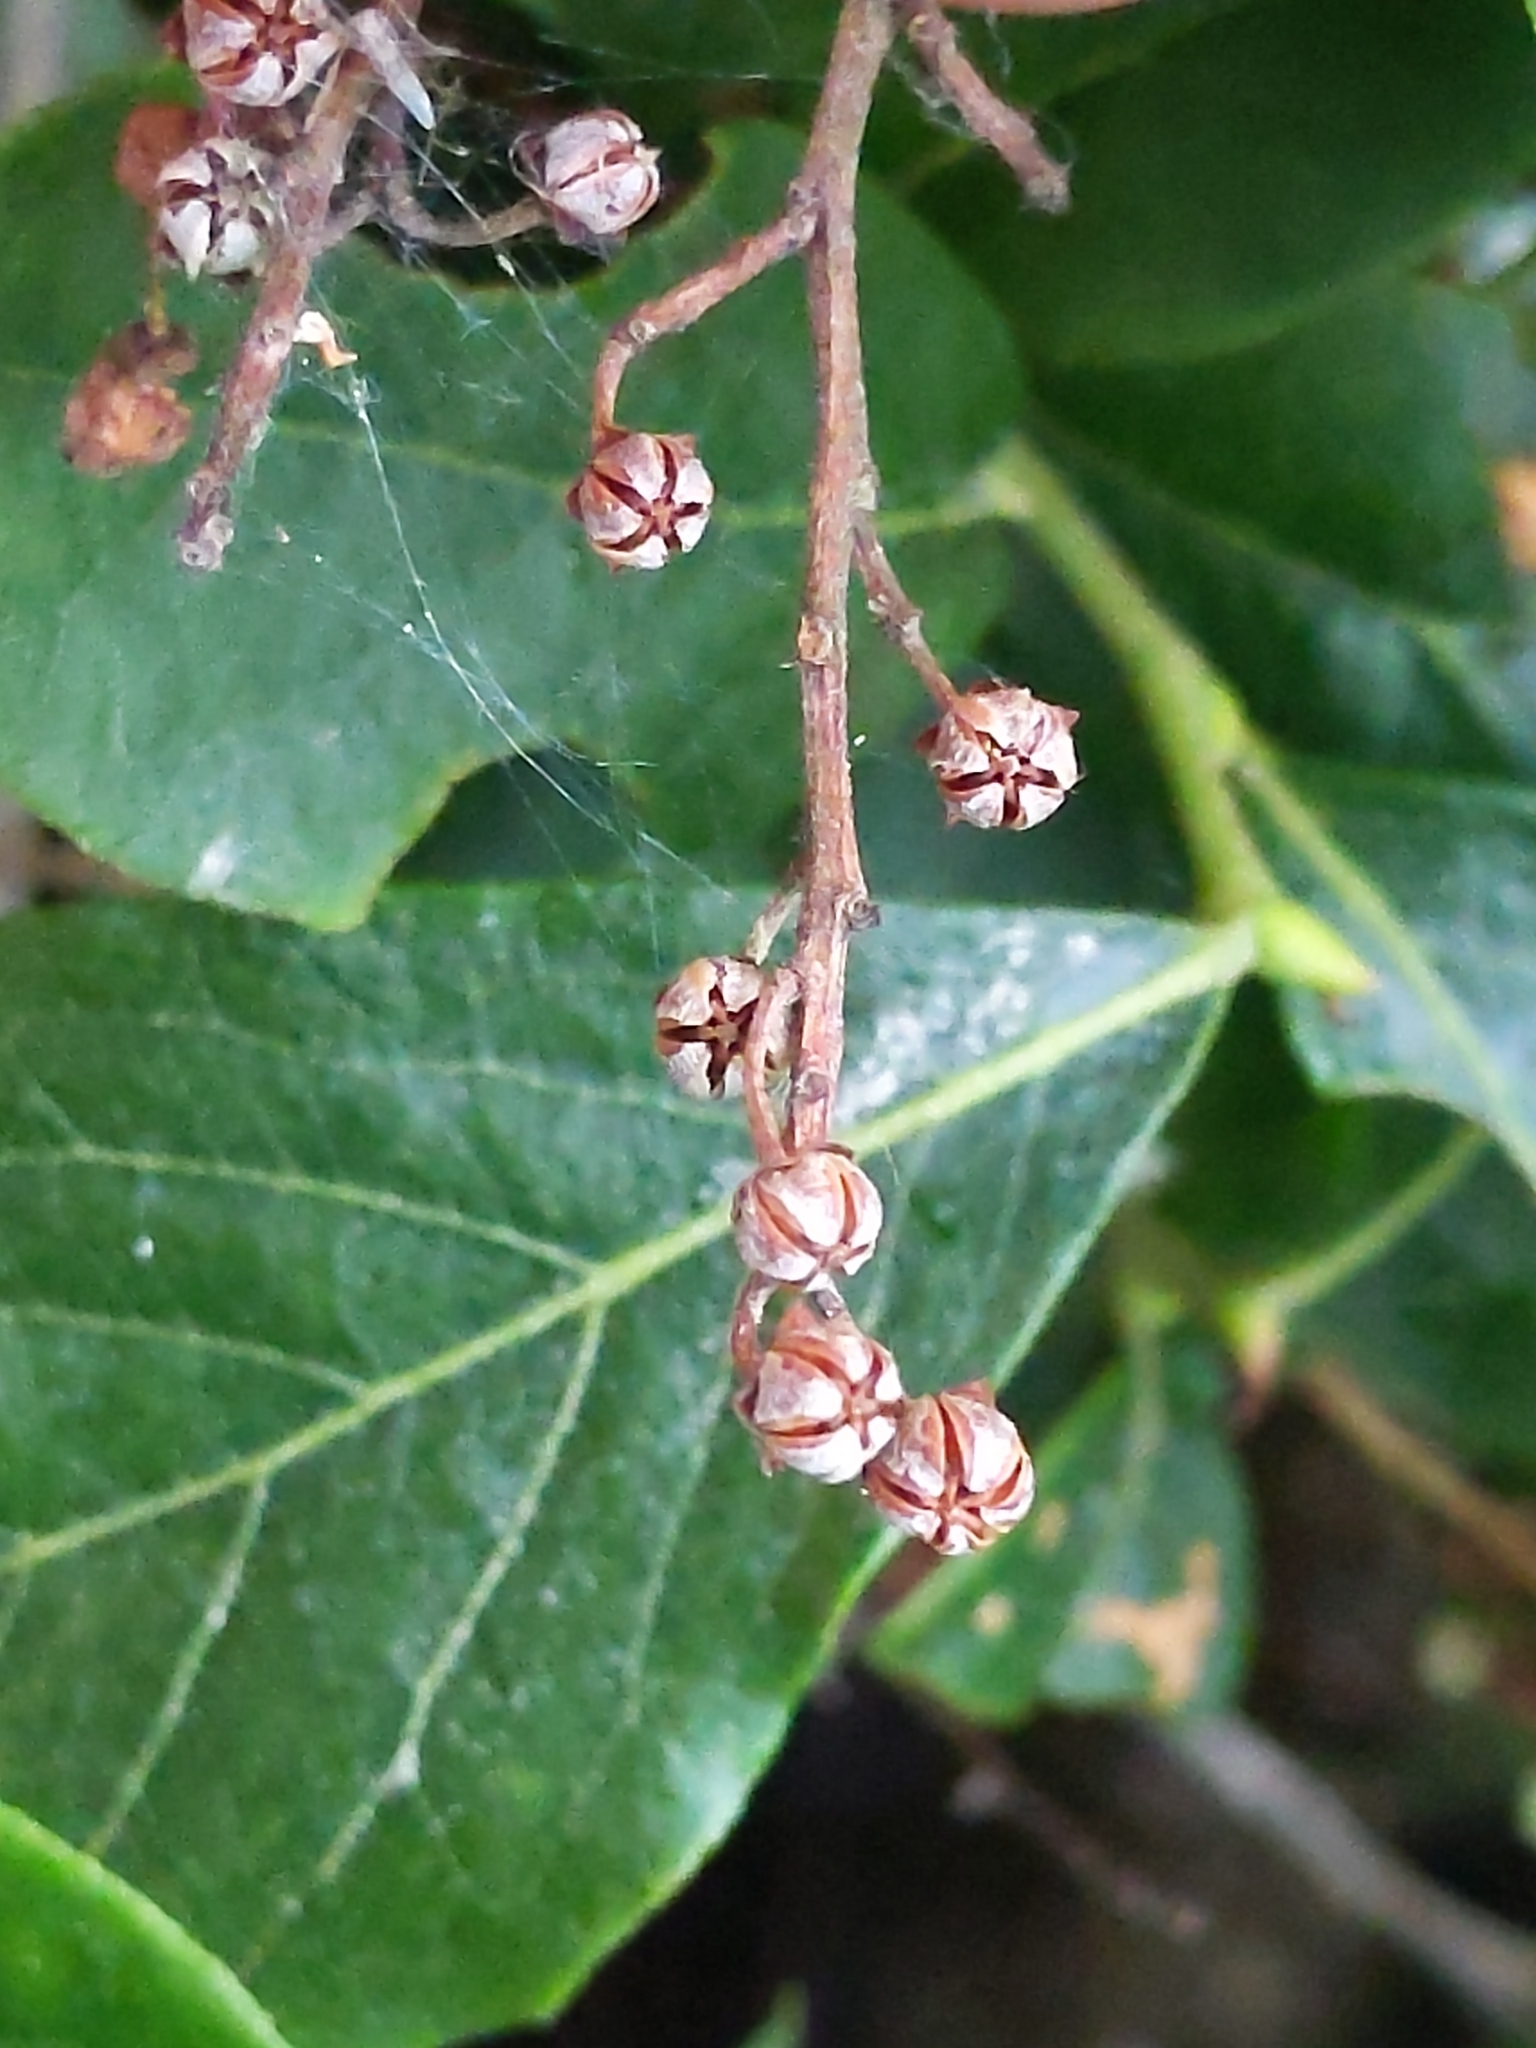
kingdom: Plantae
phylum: Tracheophyta
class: Magnoliopsida
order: Ericales
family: Ericaceae
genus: Lyonia
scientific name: Lyonia ligustrina
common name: Maleberry
